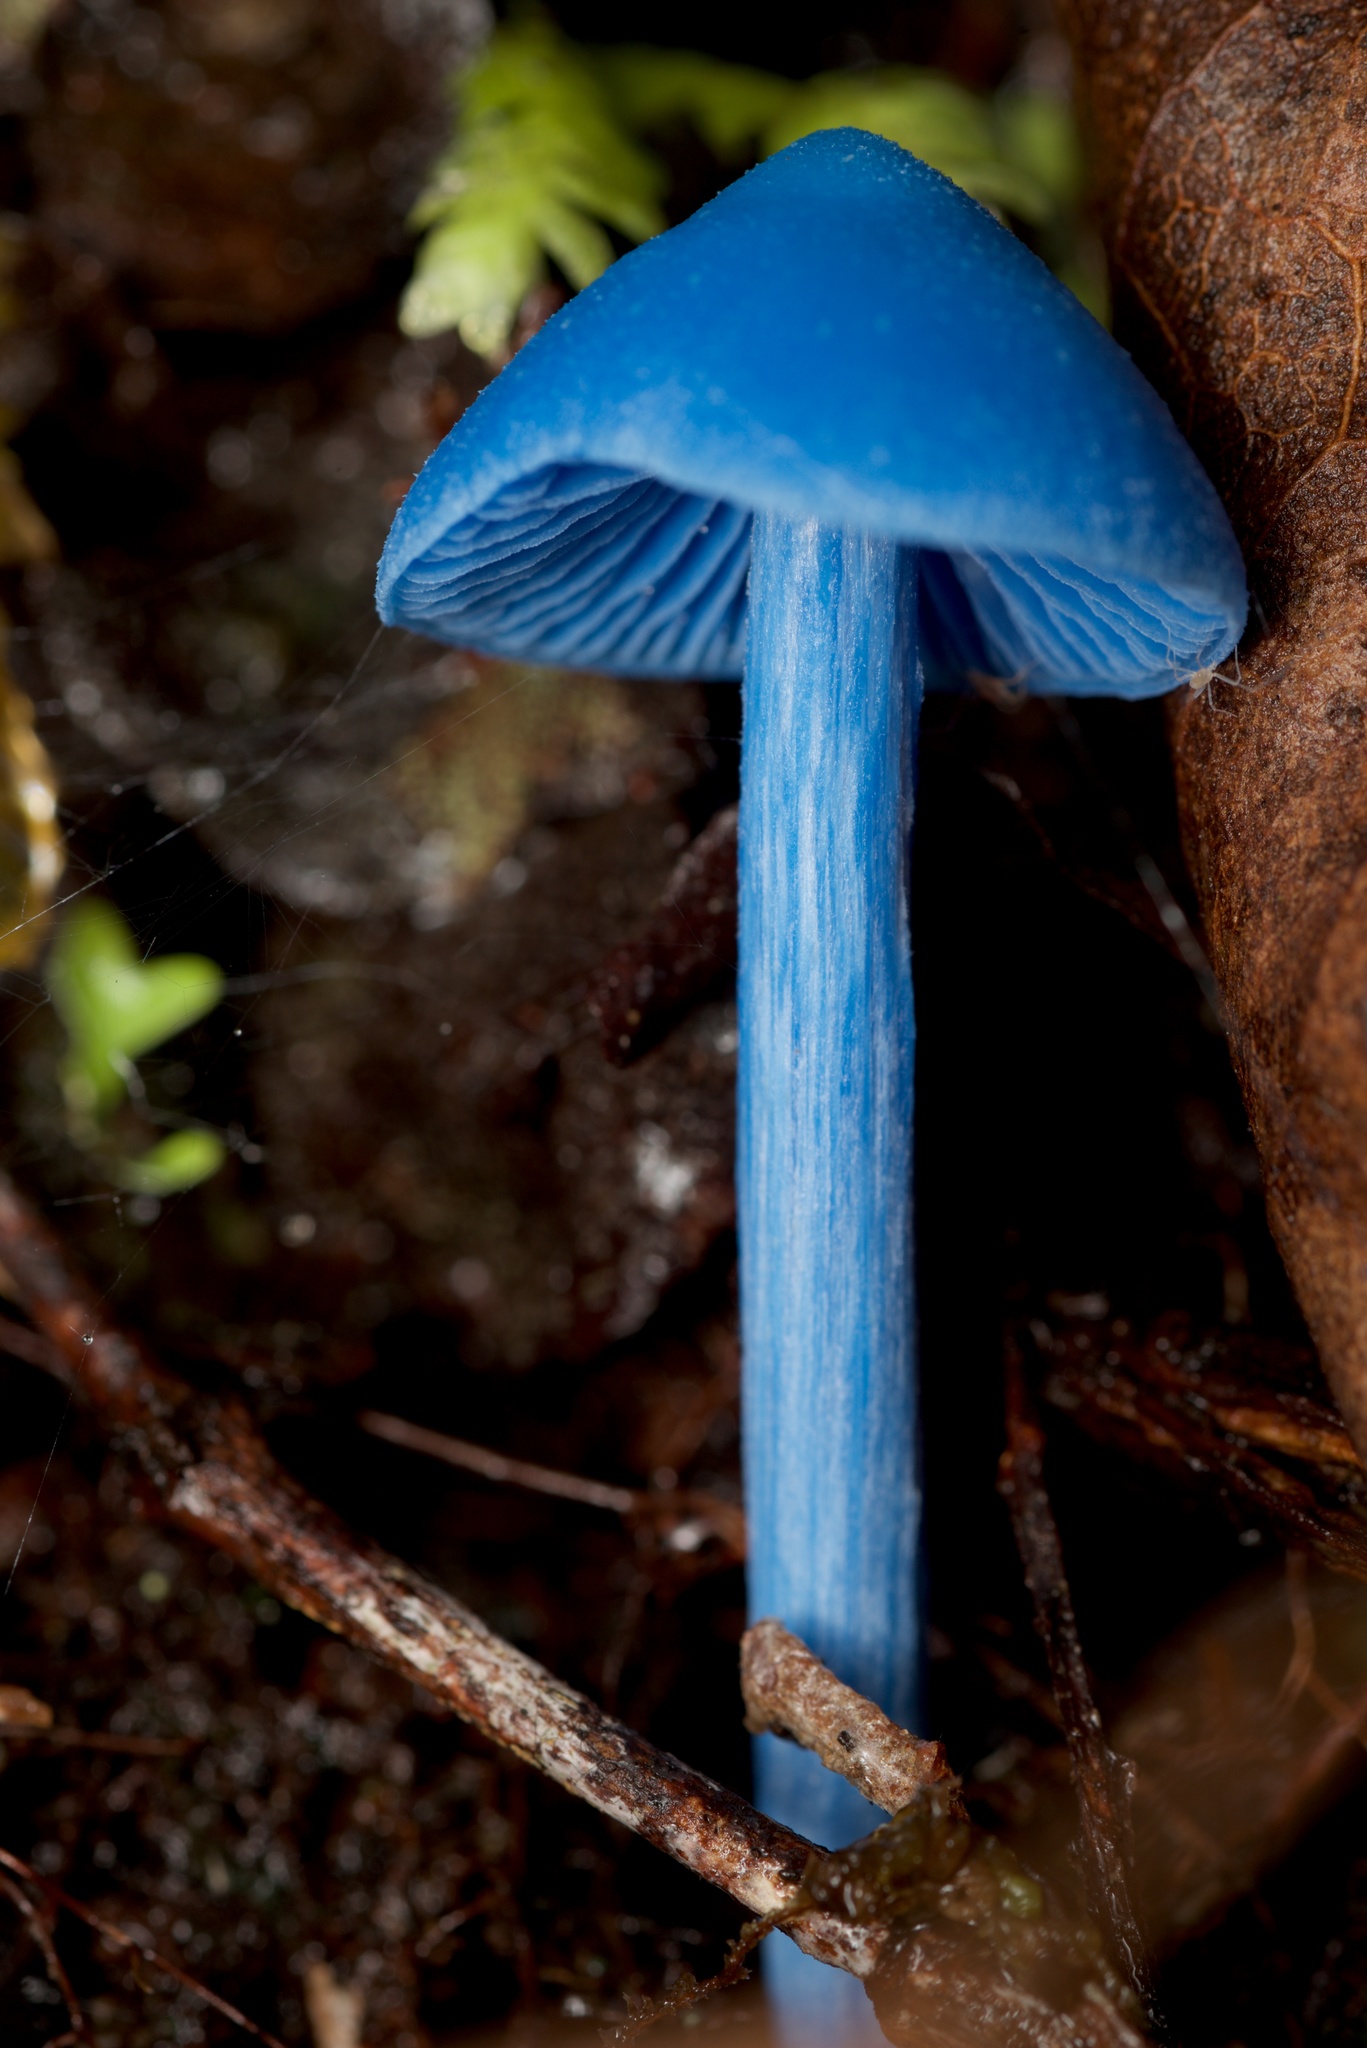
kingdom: Fungi
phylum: Basidiomycota
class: Agaricomycetes
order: Agaricales
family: Entolomataceae
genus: Entoloma
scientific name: Entoloma hochstetteri
